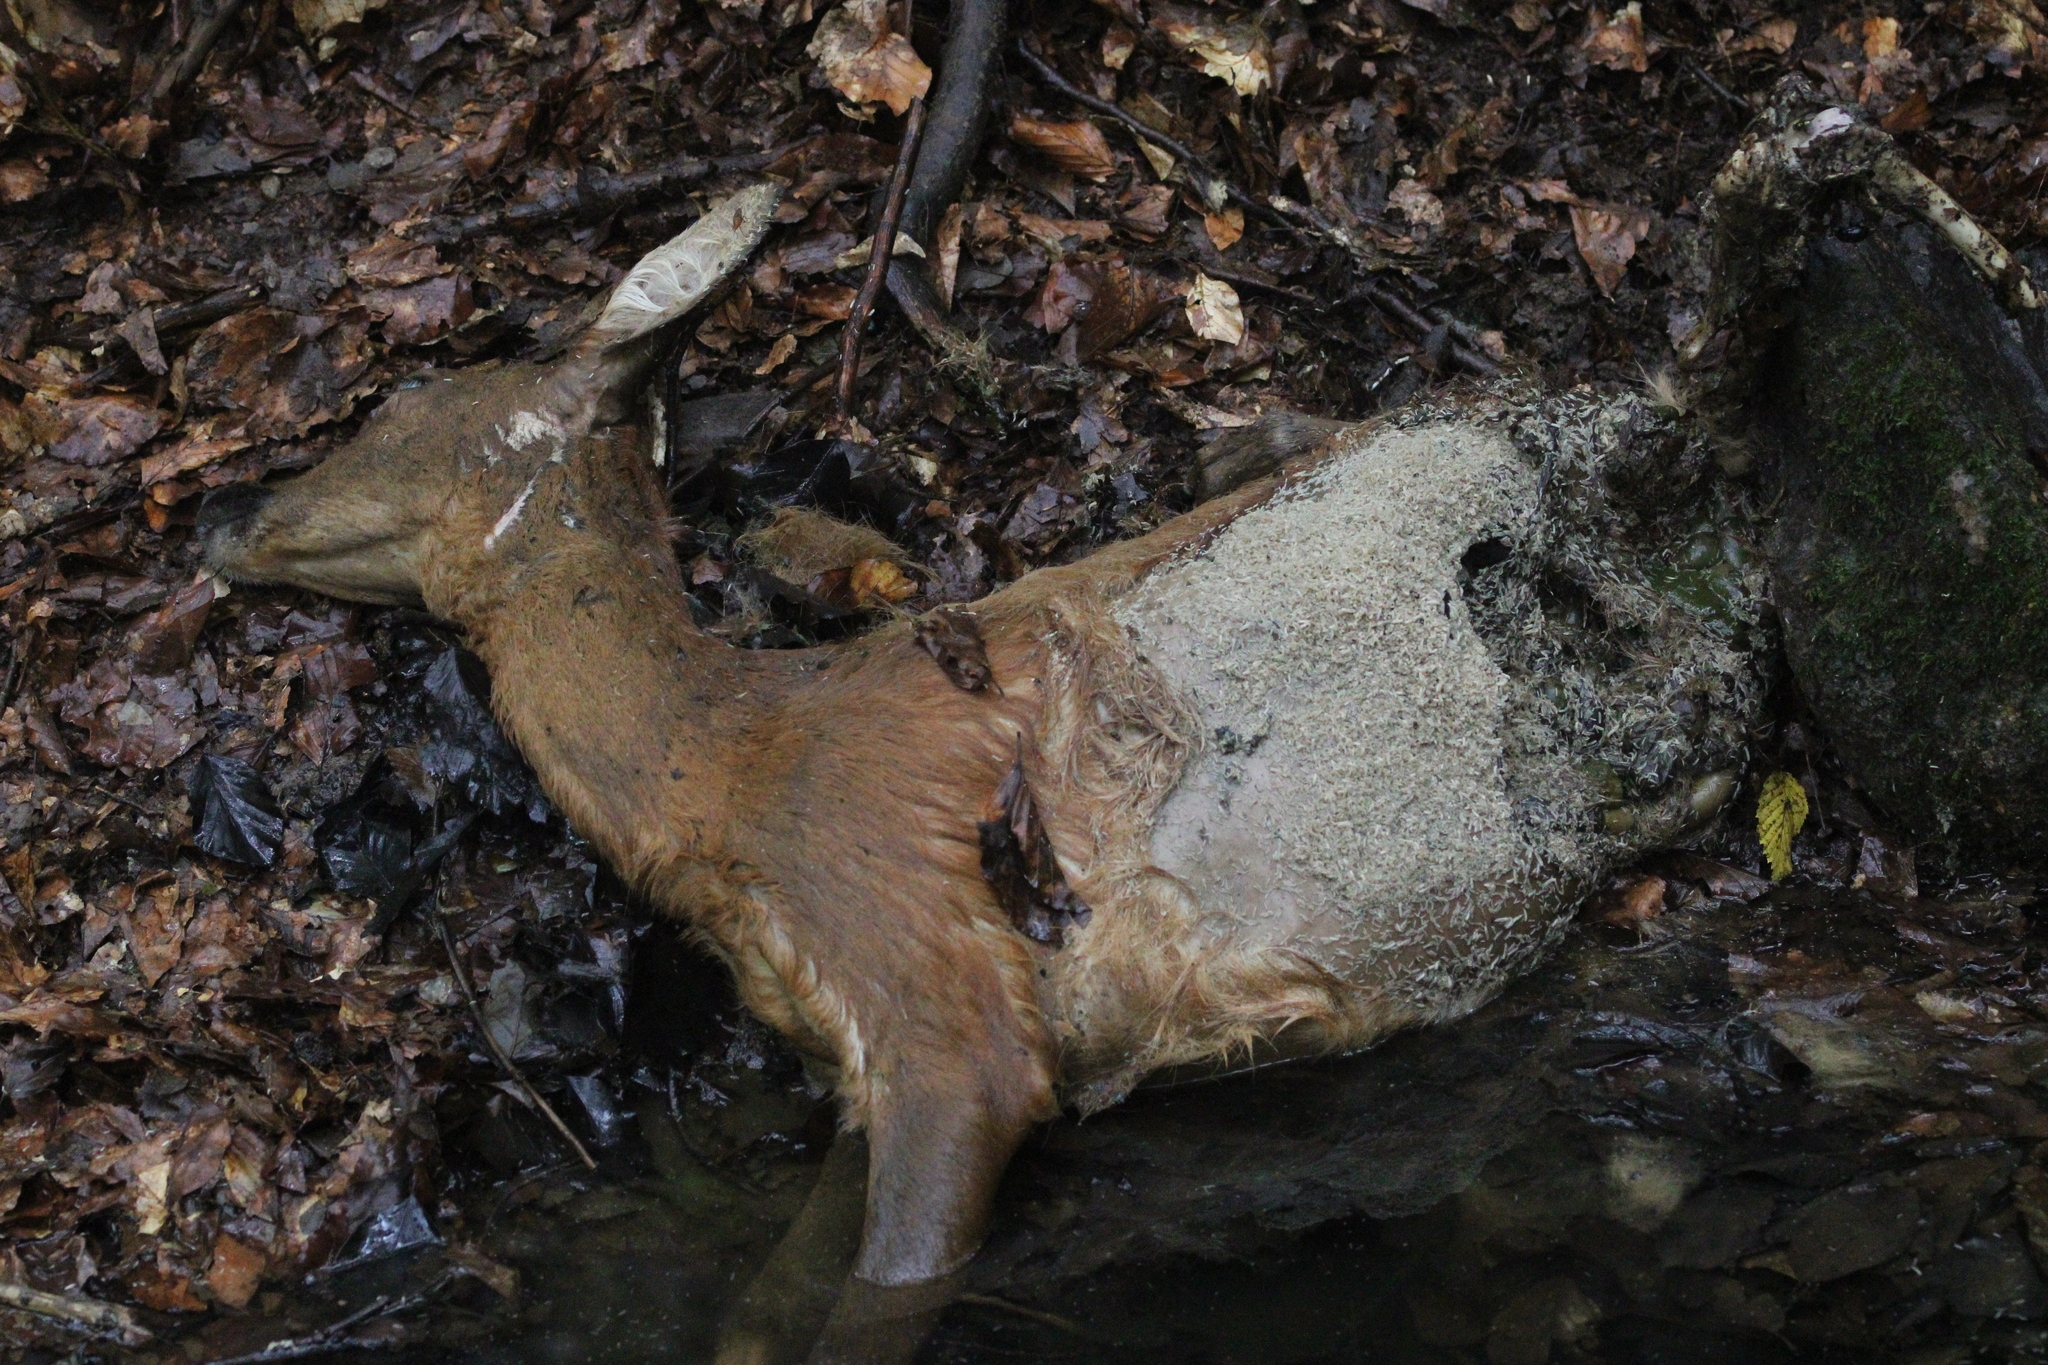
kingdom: Animalia
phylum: Chordata
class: Mammalia
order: Artiodactyla
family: Cervidae
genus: Capreolus
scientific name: Capreolus capreolus
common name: Western roe deer
